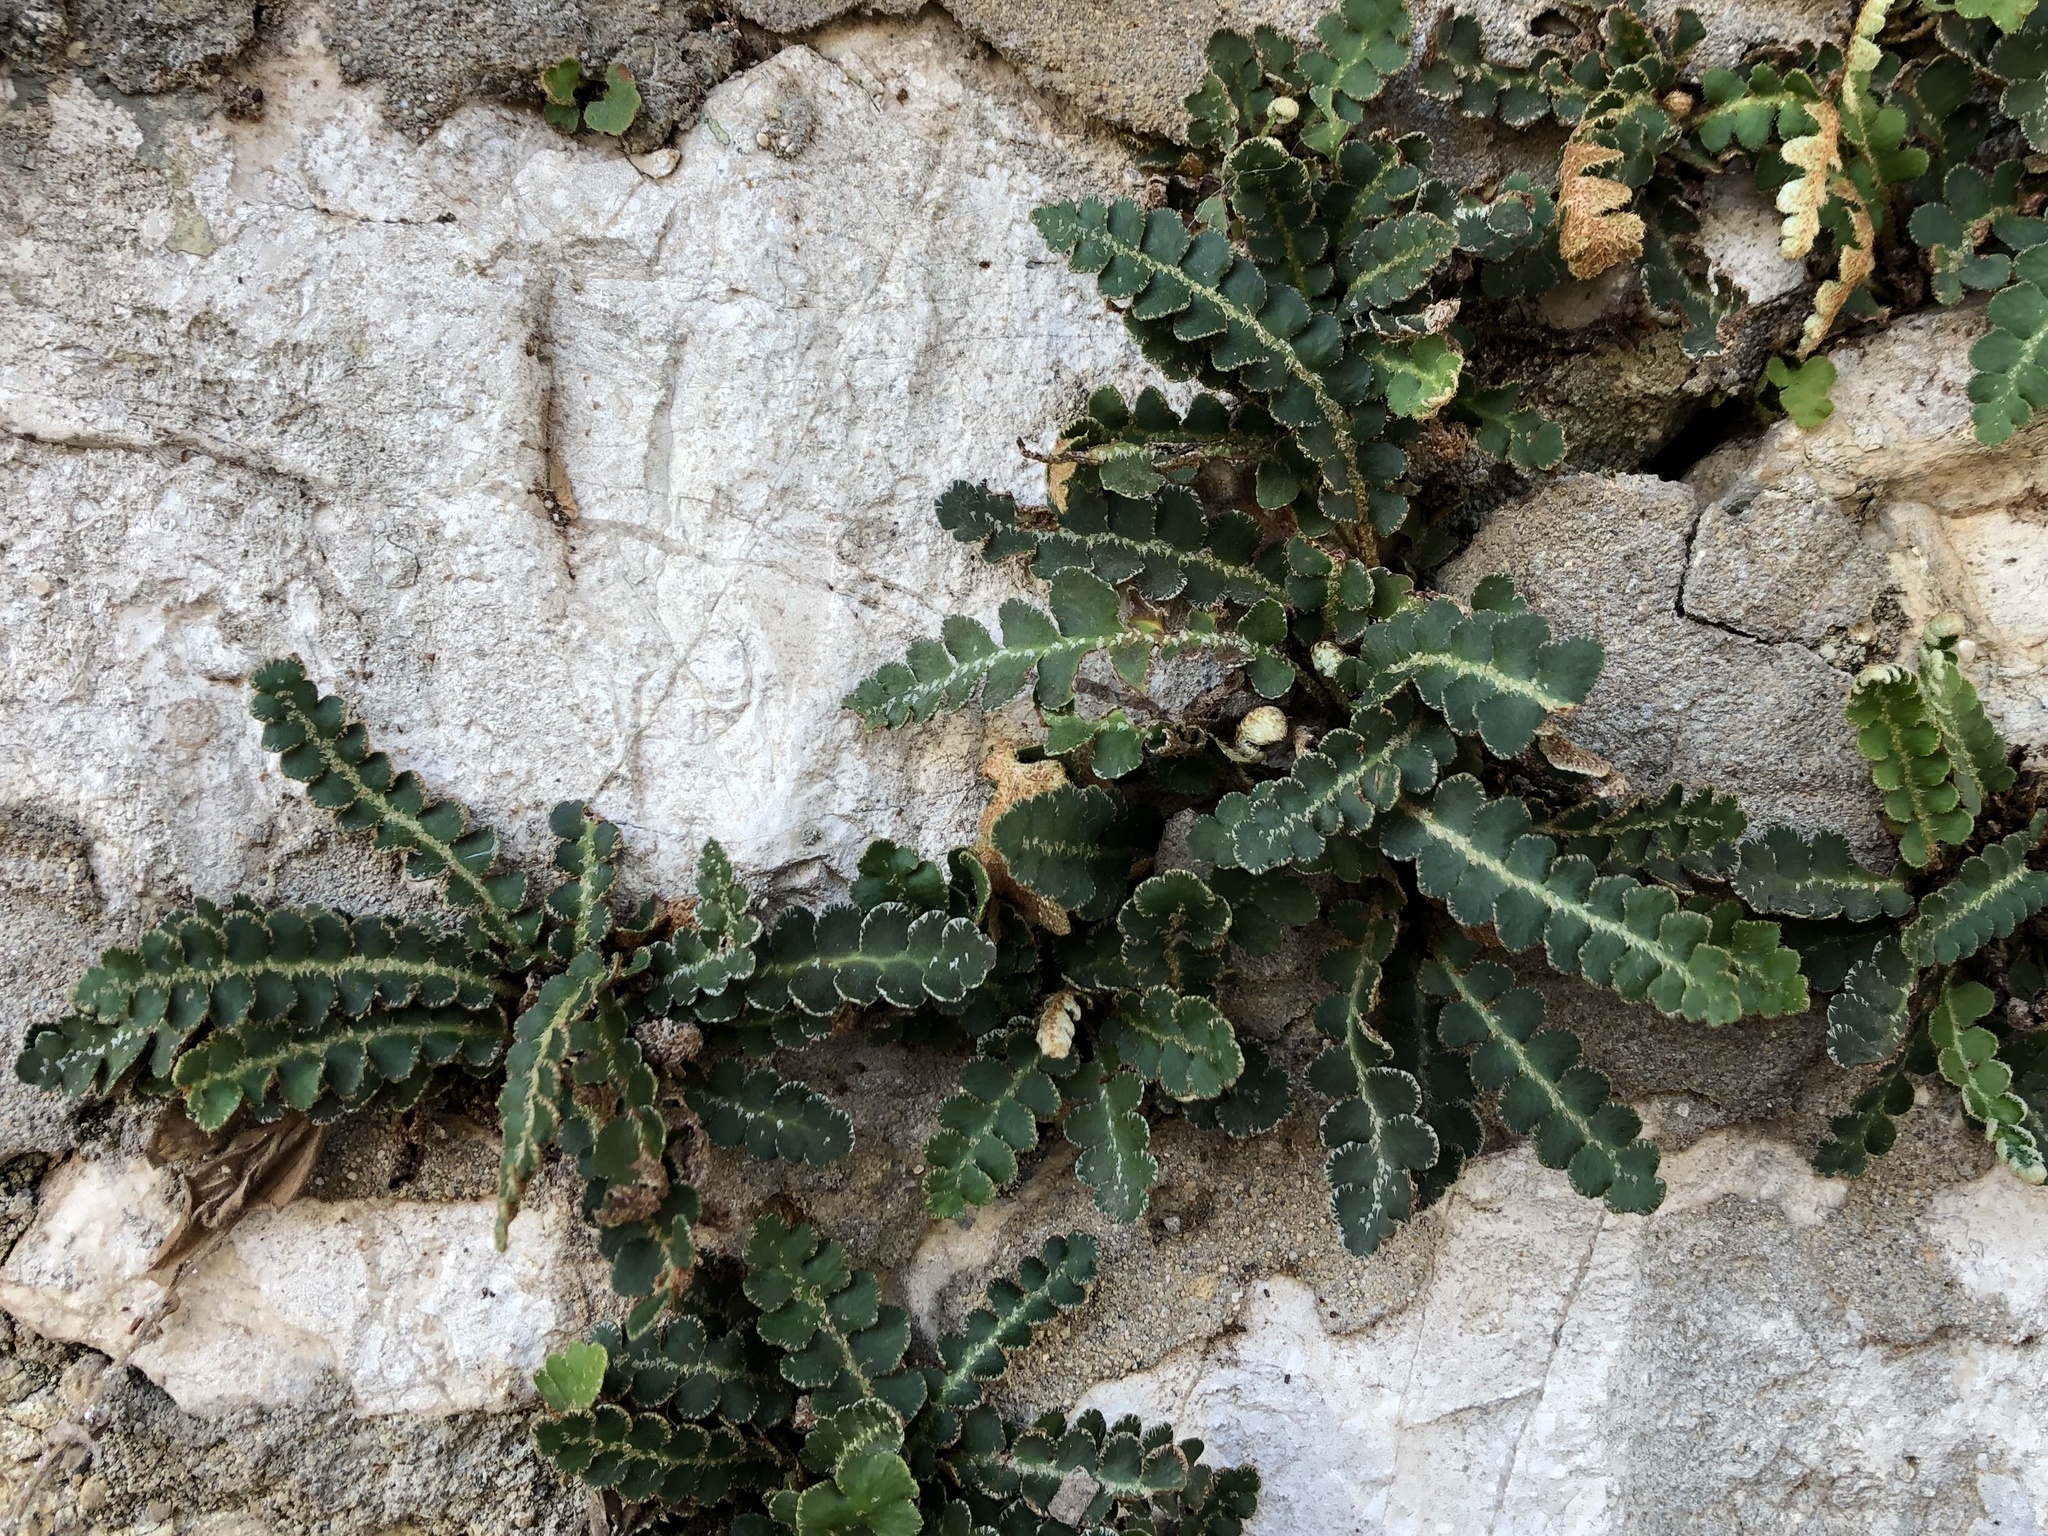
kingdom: Plantae
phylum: Tracheophyta
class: Polypodiopsida
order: Polypodiales
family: Aspleniaceae
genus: Asplenium
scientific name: Asplenium ceterach
